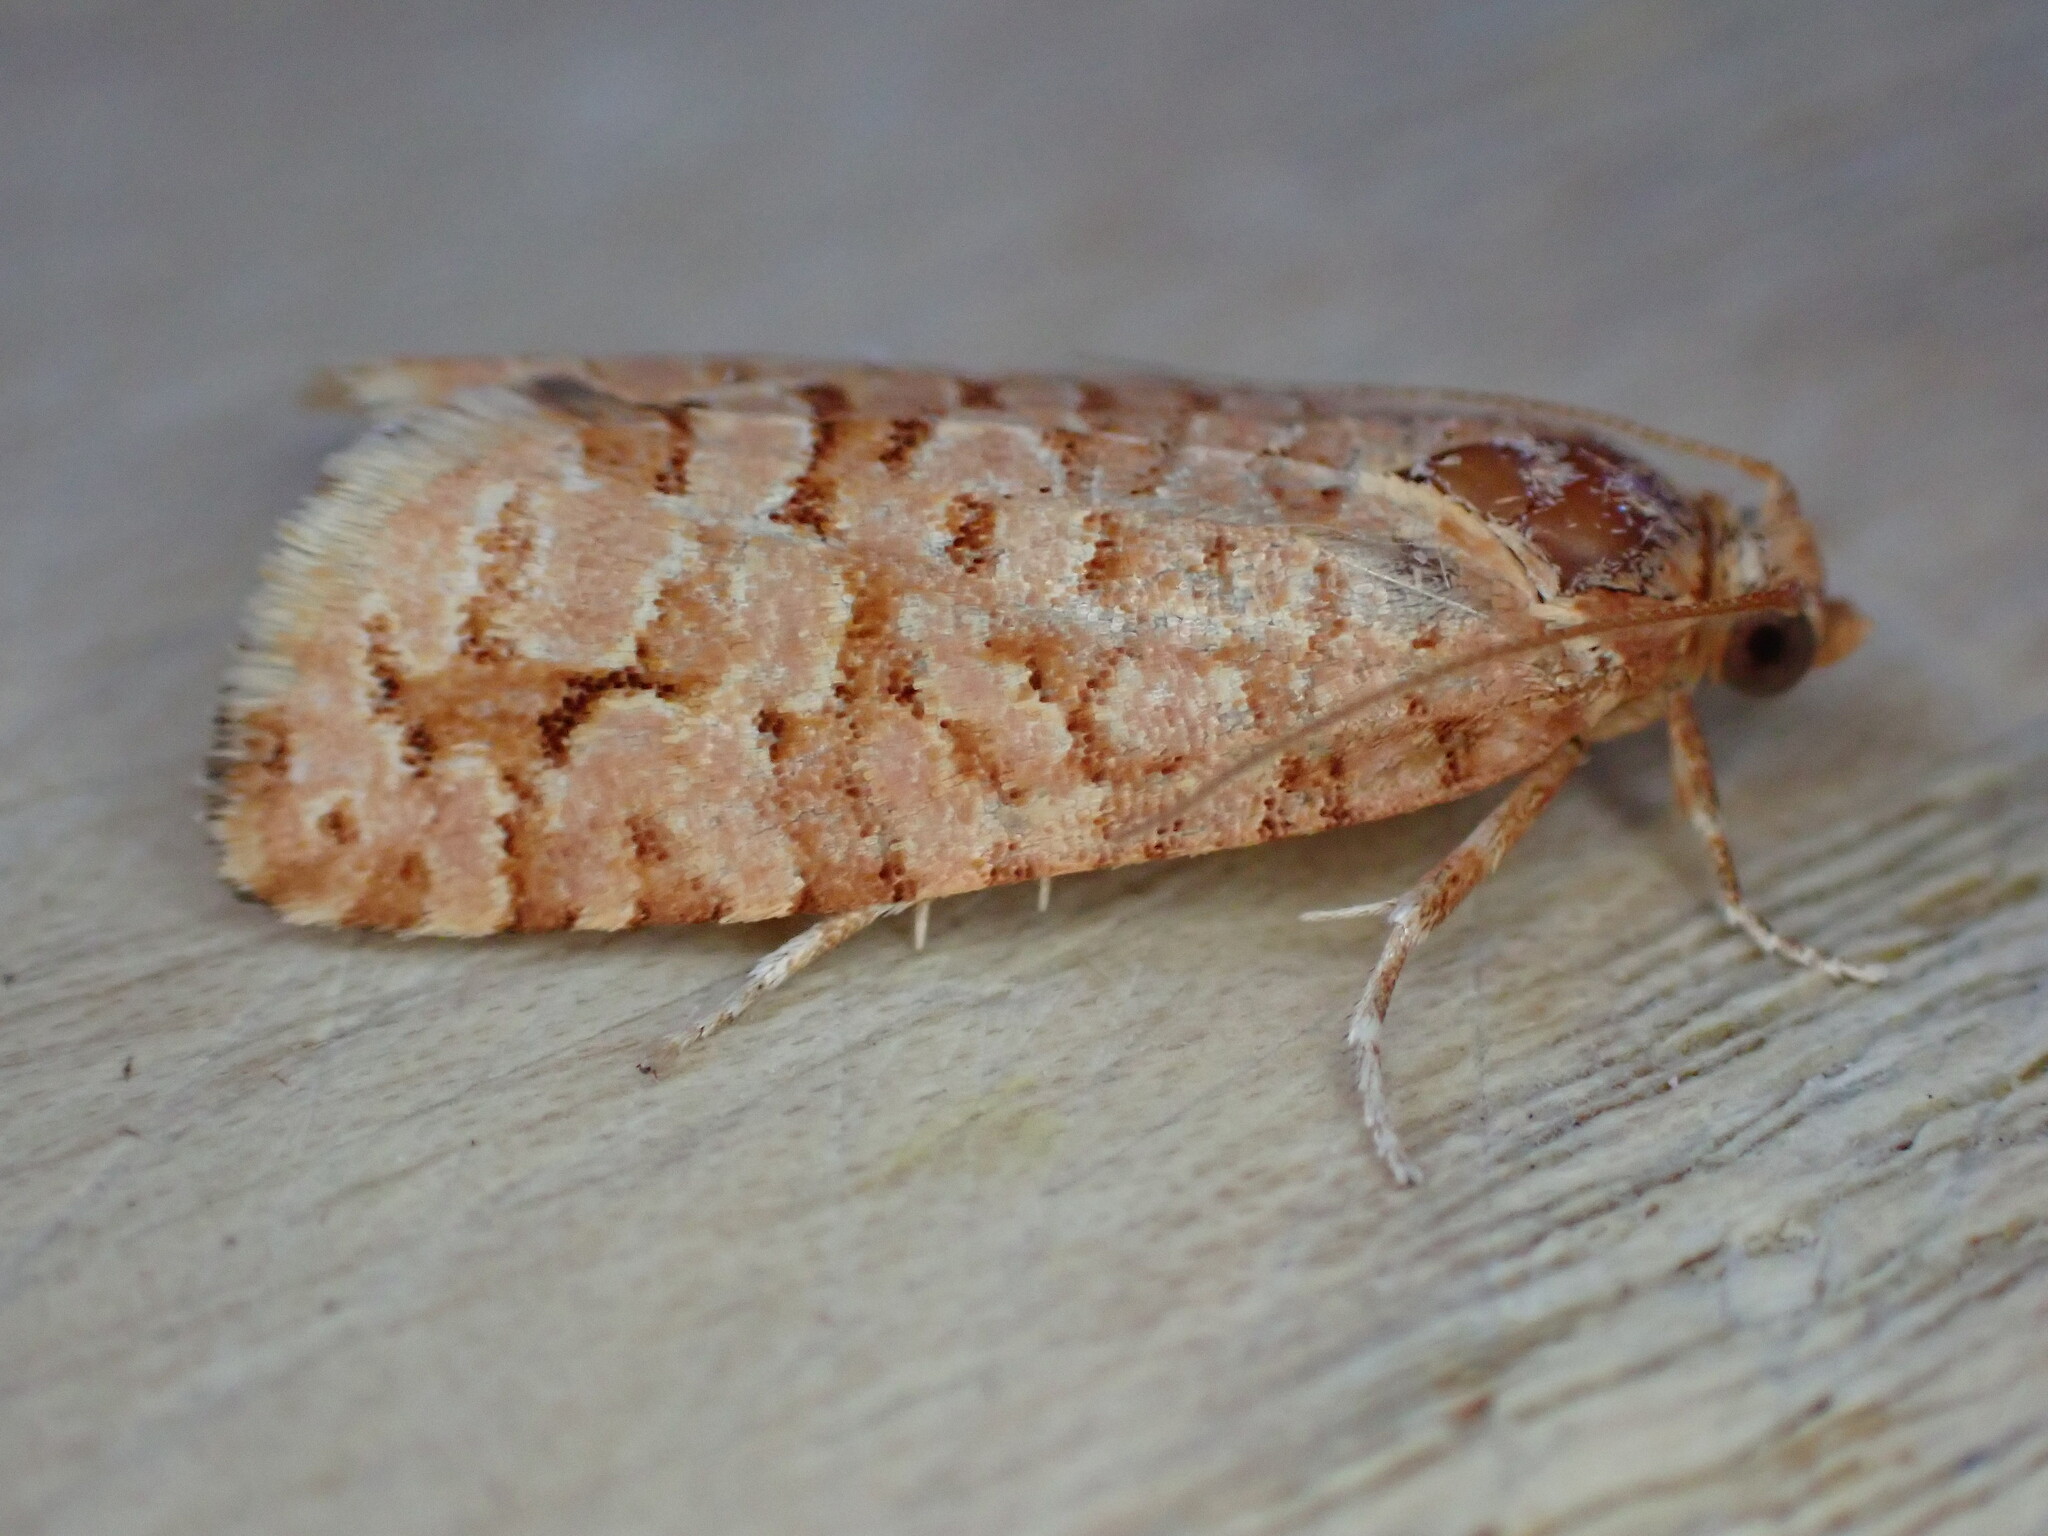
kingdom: Animalia
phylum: Arthropoda
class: Insecta
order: Lepidoptera
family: Tortricidae
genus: Lozotaeniodes
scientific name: Lozotaeniodes formosana
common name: Orange pine twist
